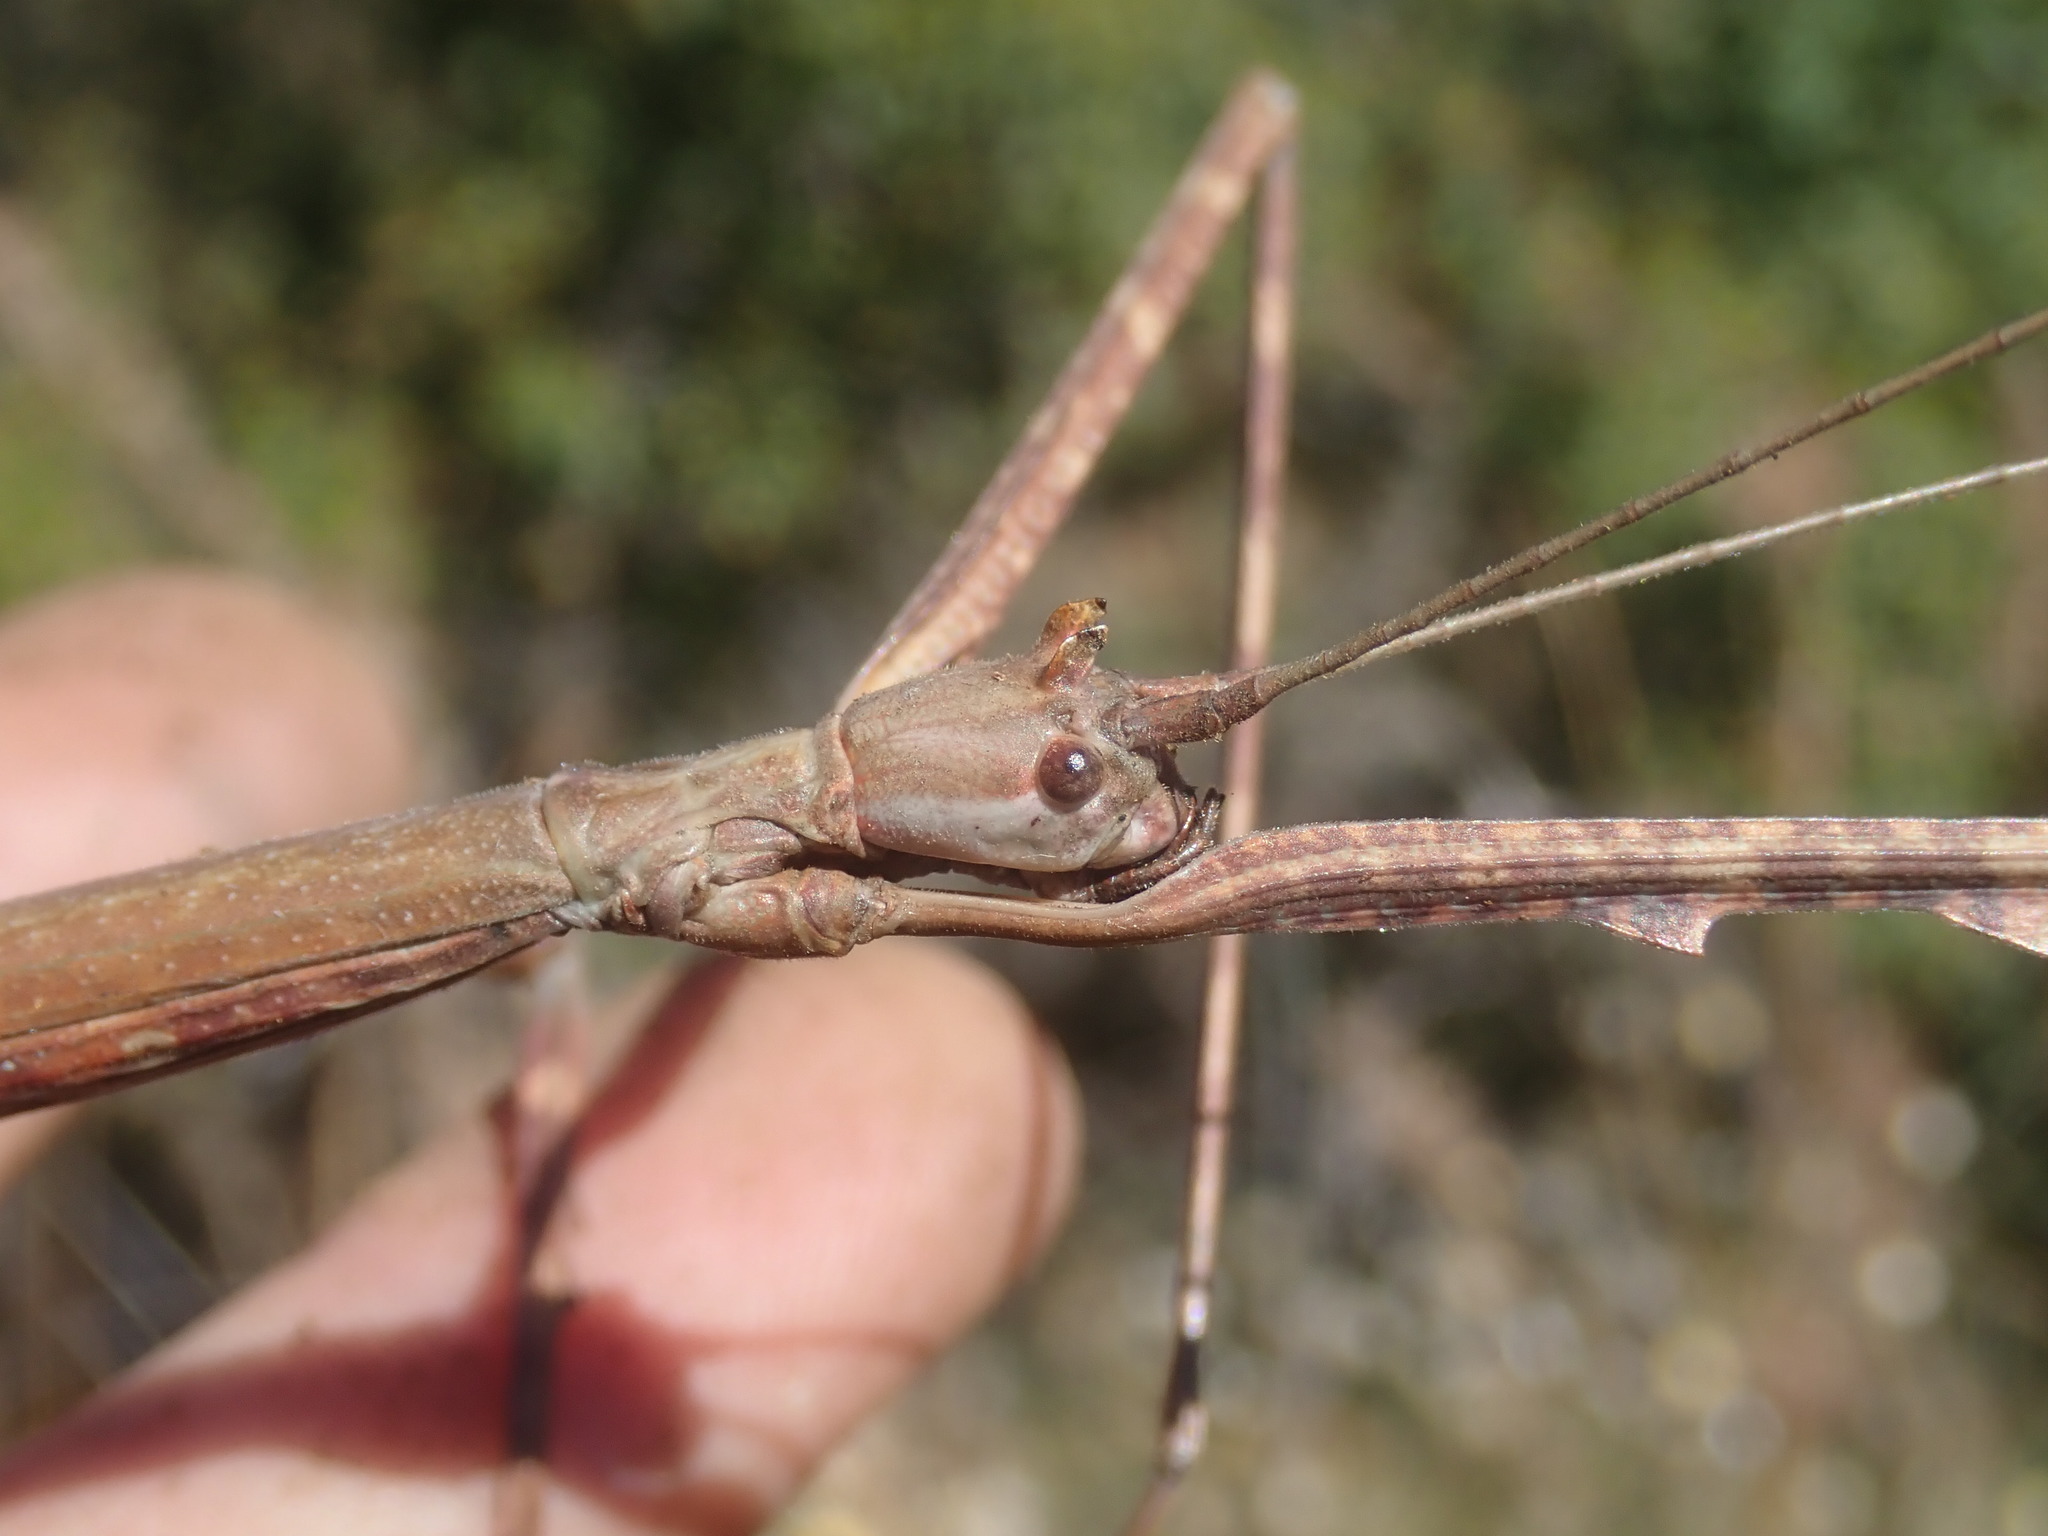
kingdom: Animalia
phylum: Arthropoda
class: Insecta
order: Phasmida
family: Diapheromeridae
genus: Bactricia
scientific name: Bactricia bituberculata
